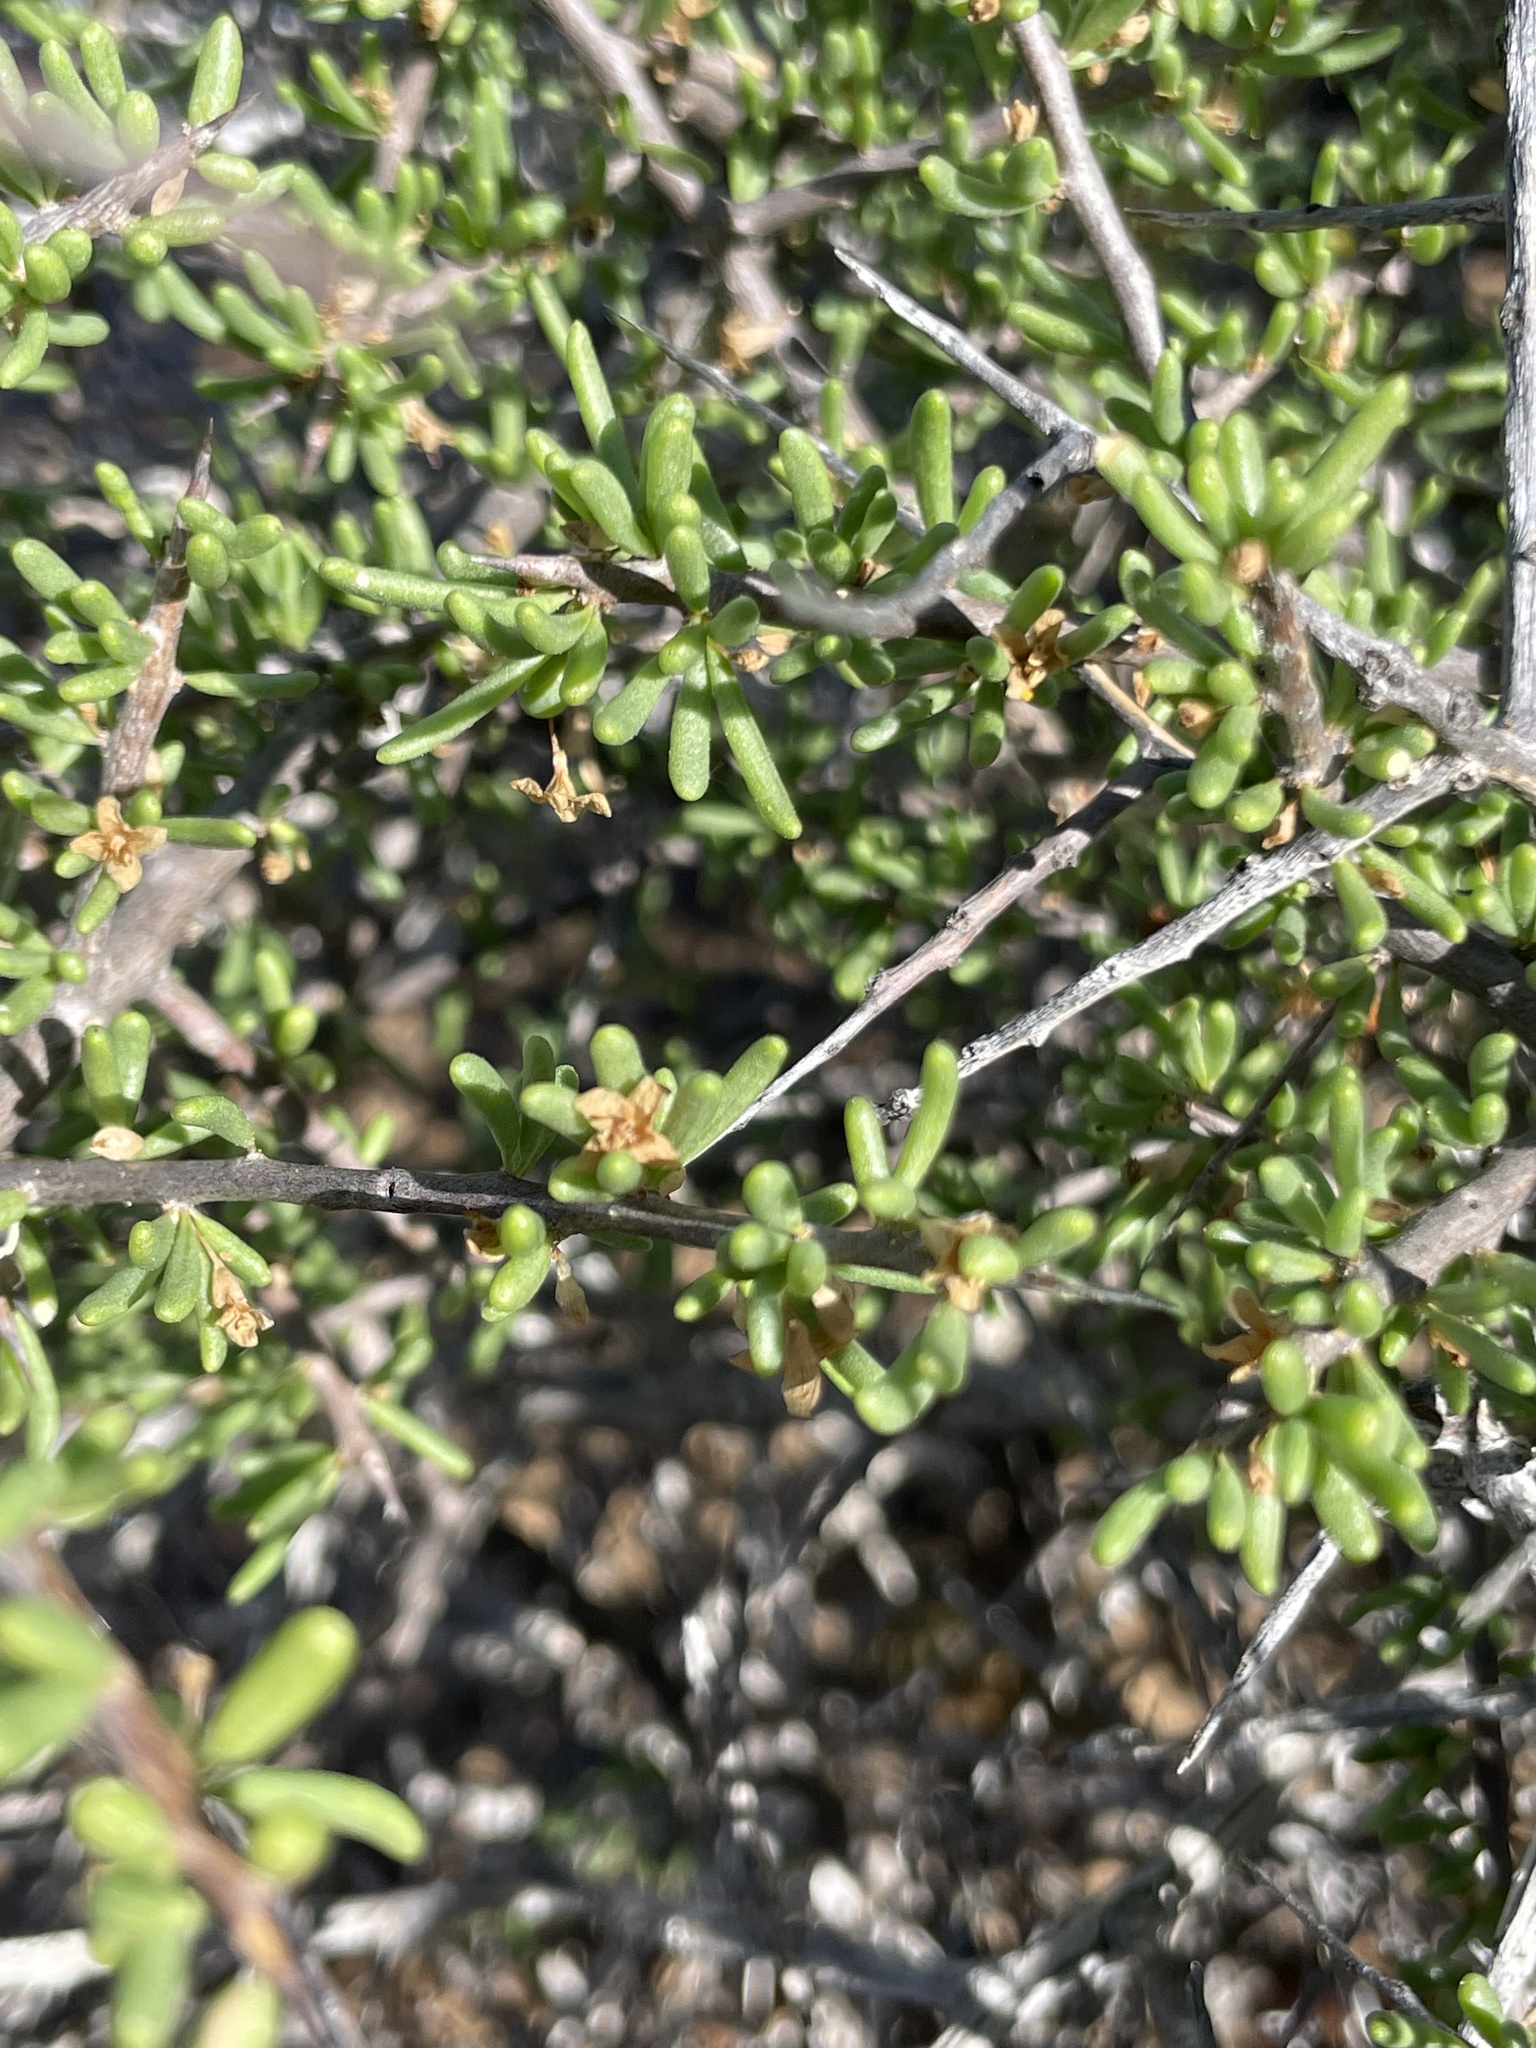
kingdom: Plantae
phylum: Tracheophyta
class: Magnoliopsida
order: Solanales
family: Solanaceae
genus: Lycium
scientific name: Lycium californicum
